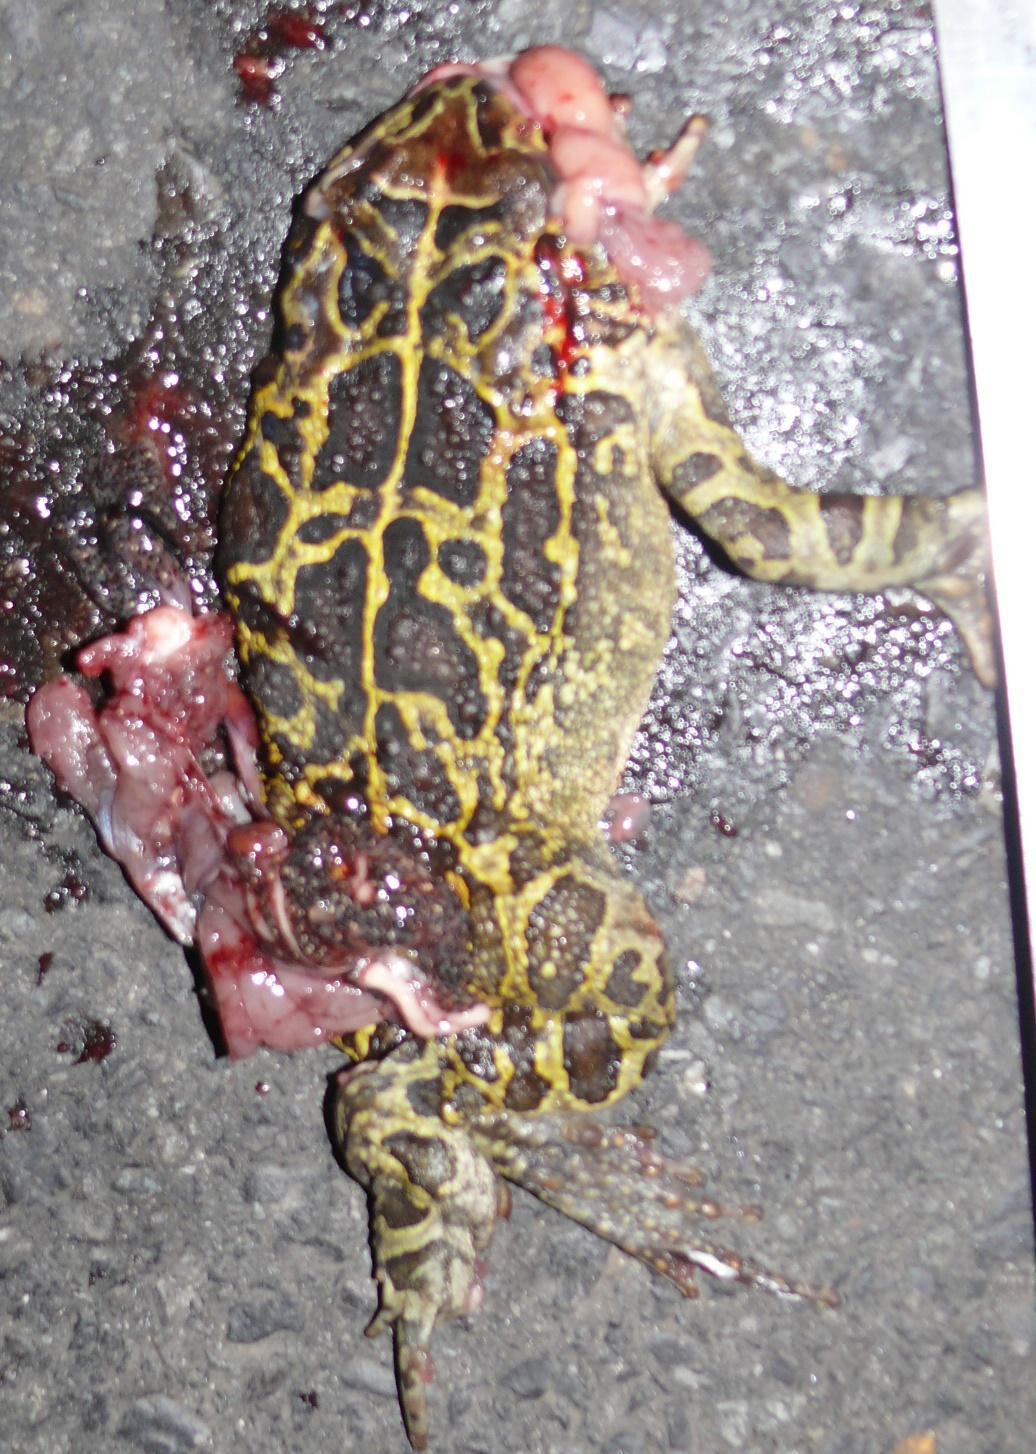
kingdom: Animalia
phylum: Chordata
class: Amphibia
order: Anura
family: Bufonidae
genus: Sclerophrys
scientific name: Sclerophrys pantherina
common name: Panther toad
